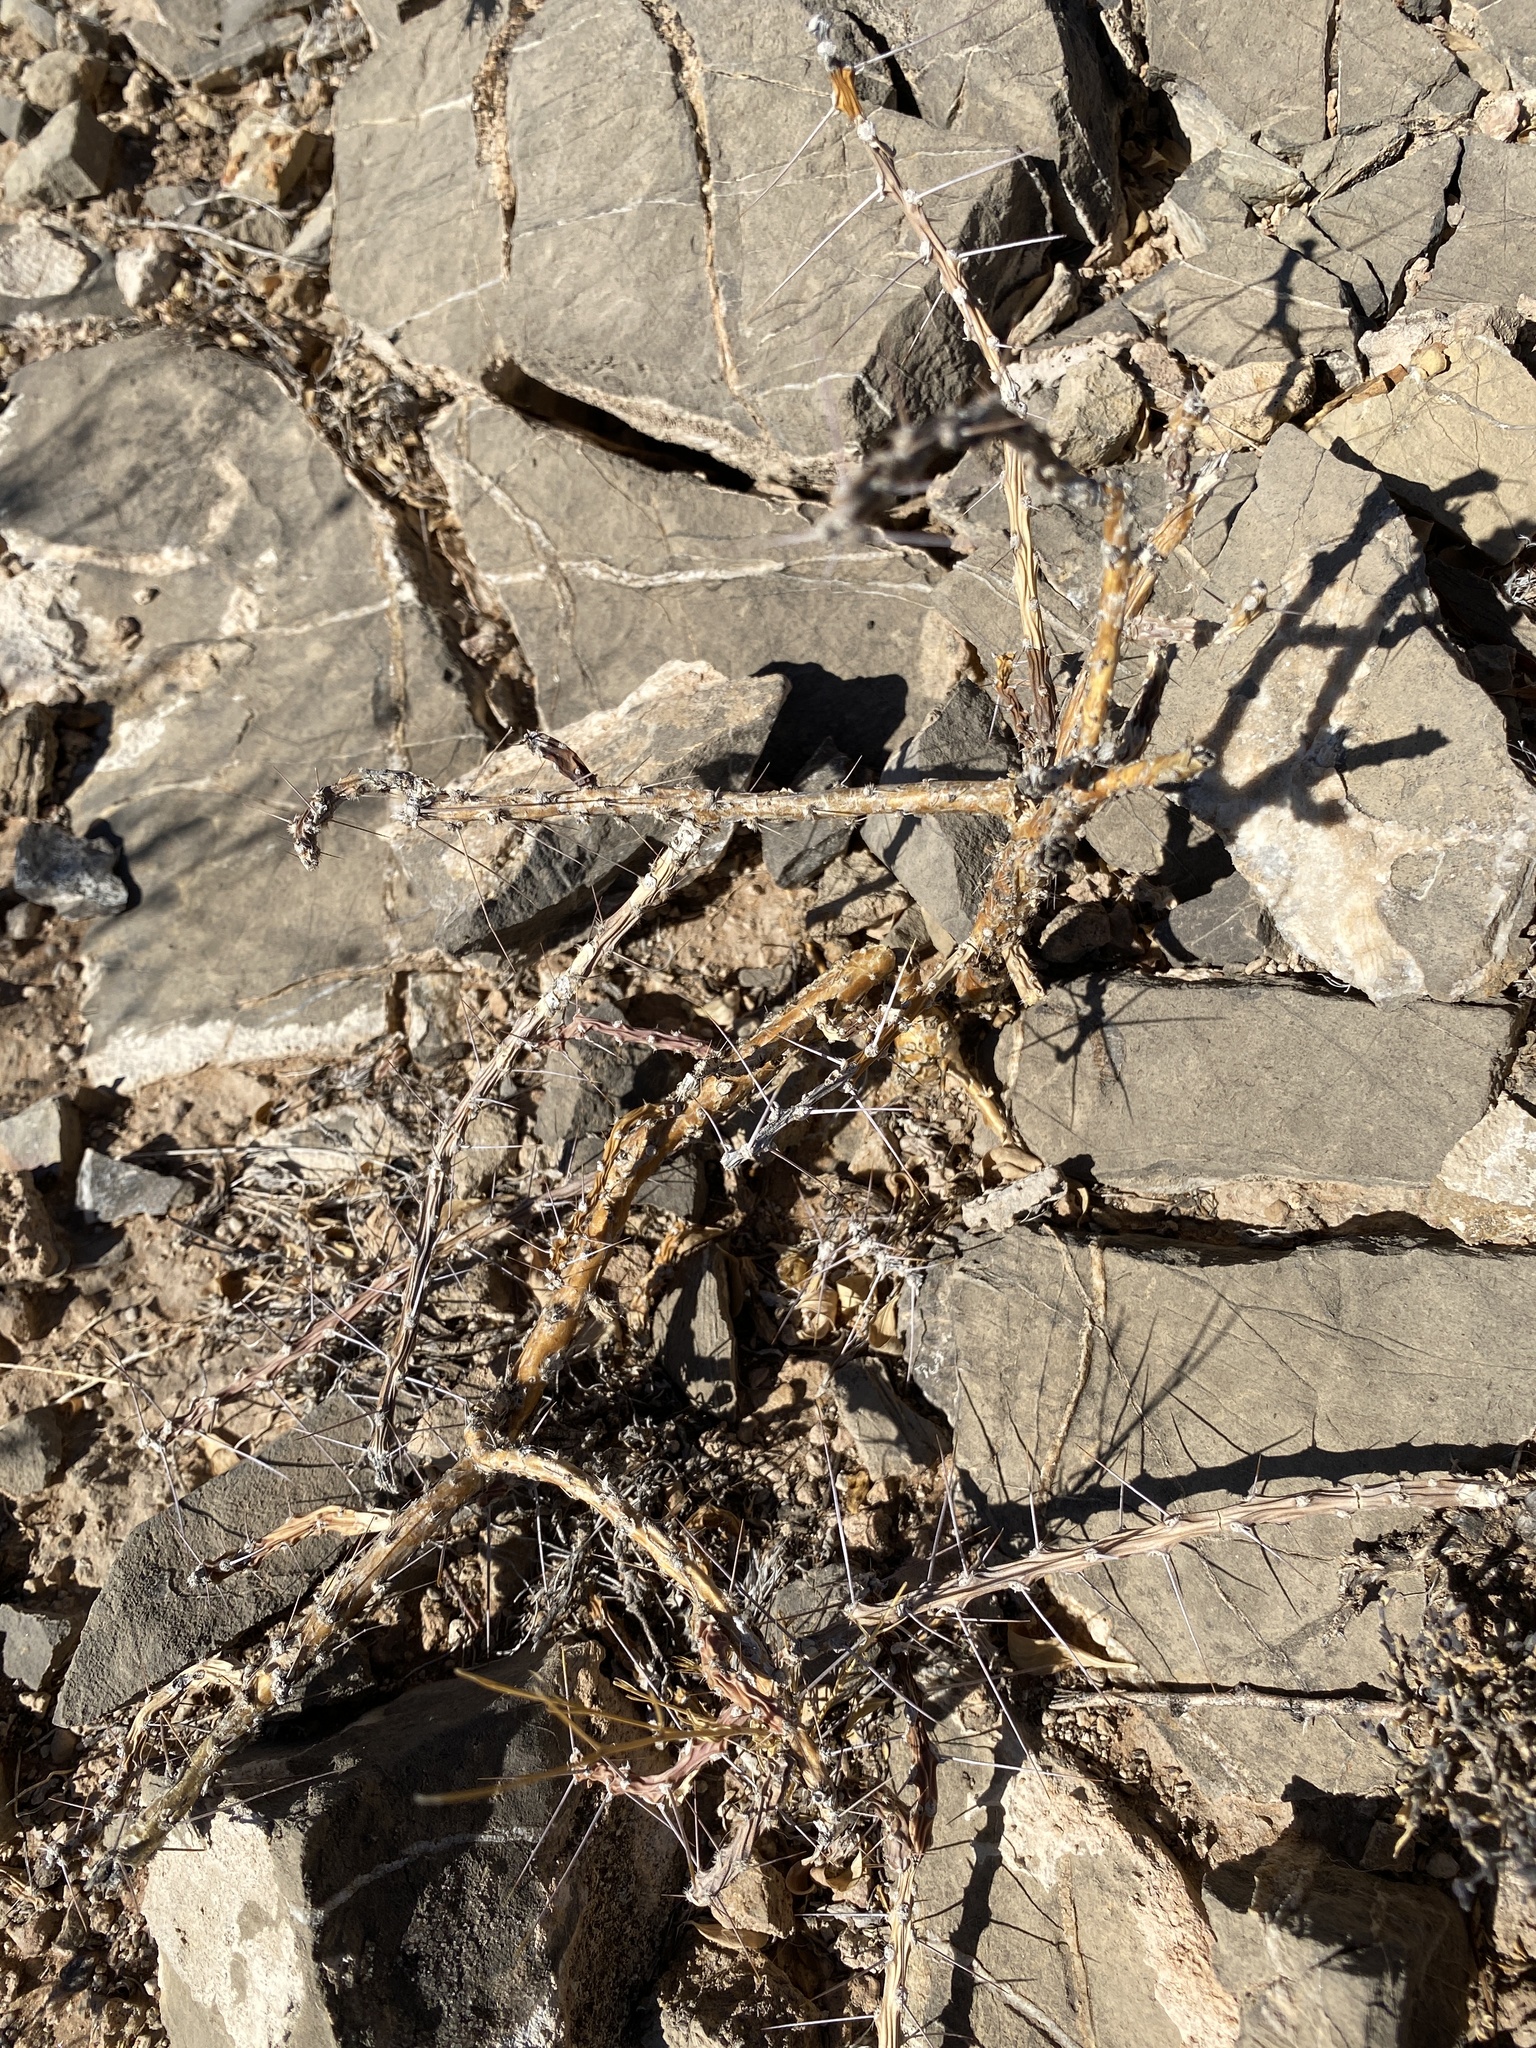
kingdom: Plantae
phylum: Tracheophyta
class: Magnoliopsida
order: Caryophyllales
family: Cactaceae
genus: Cylindropuntia
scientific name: Cylindropuntia leptocaulis
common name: Christmas cactus
